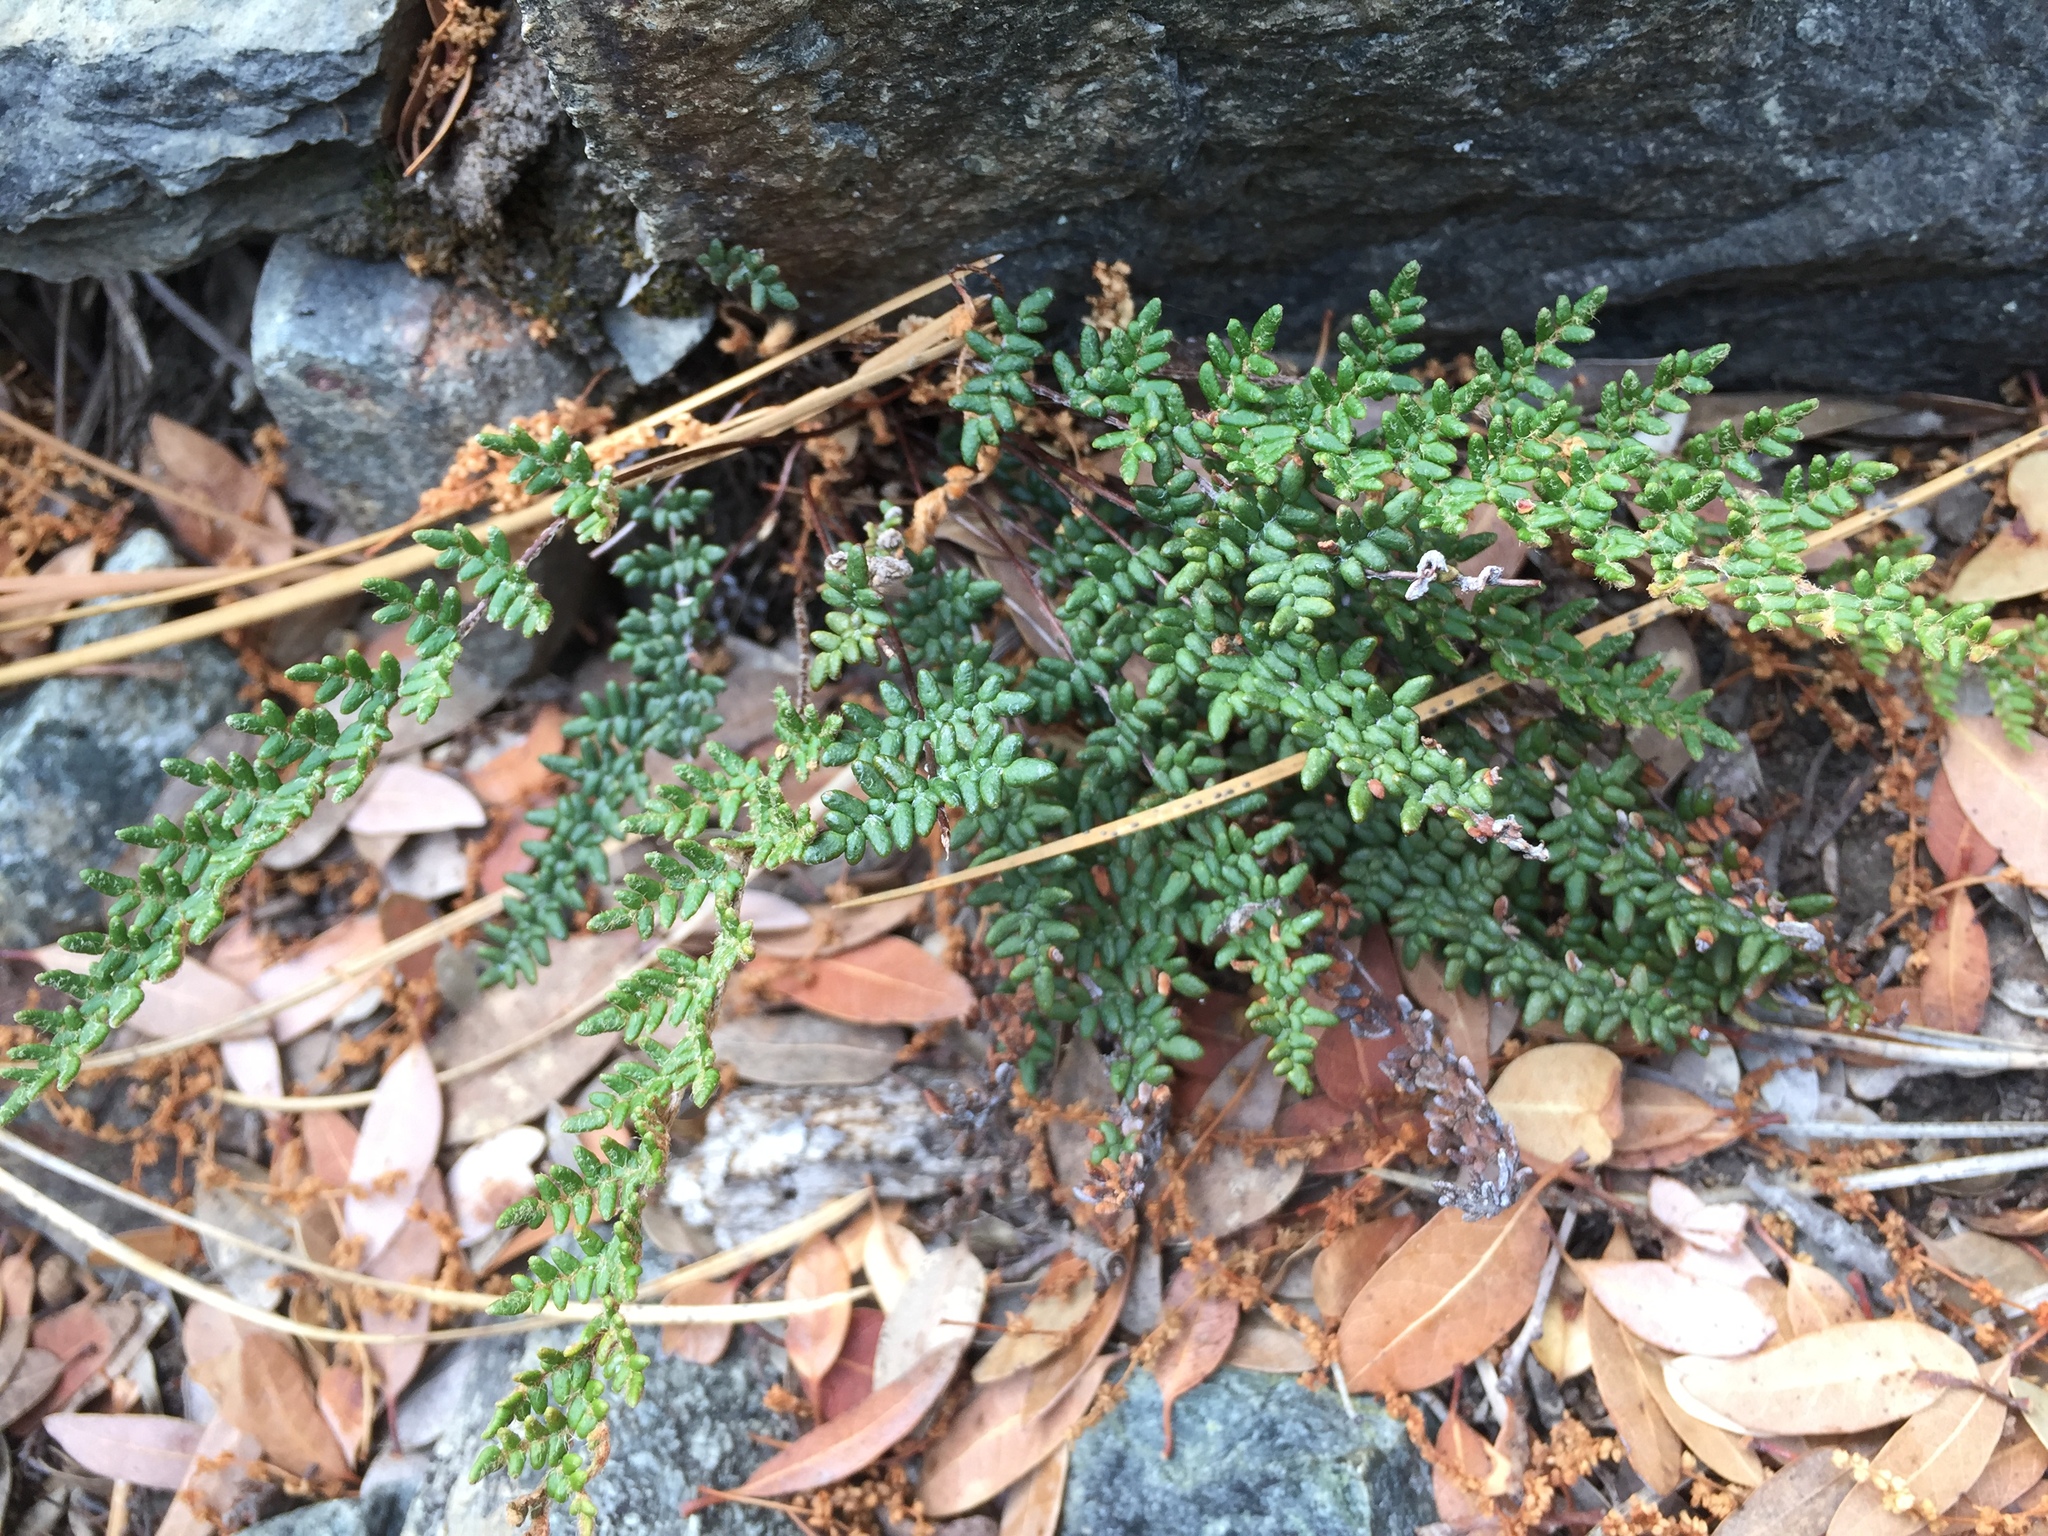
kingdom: Plantae
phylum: Tracheophyta
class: Polypodiopsida
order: Polypodiales
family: Pteridaceae
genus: Myriopteris
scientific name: Myriopteris gracillima
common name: Lace fern
